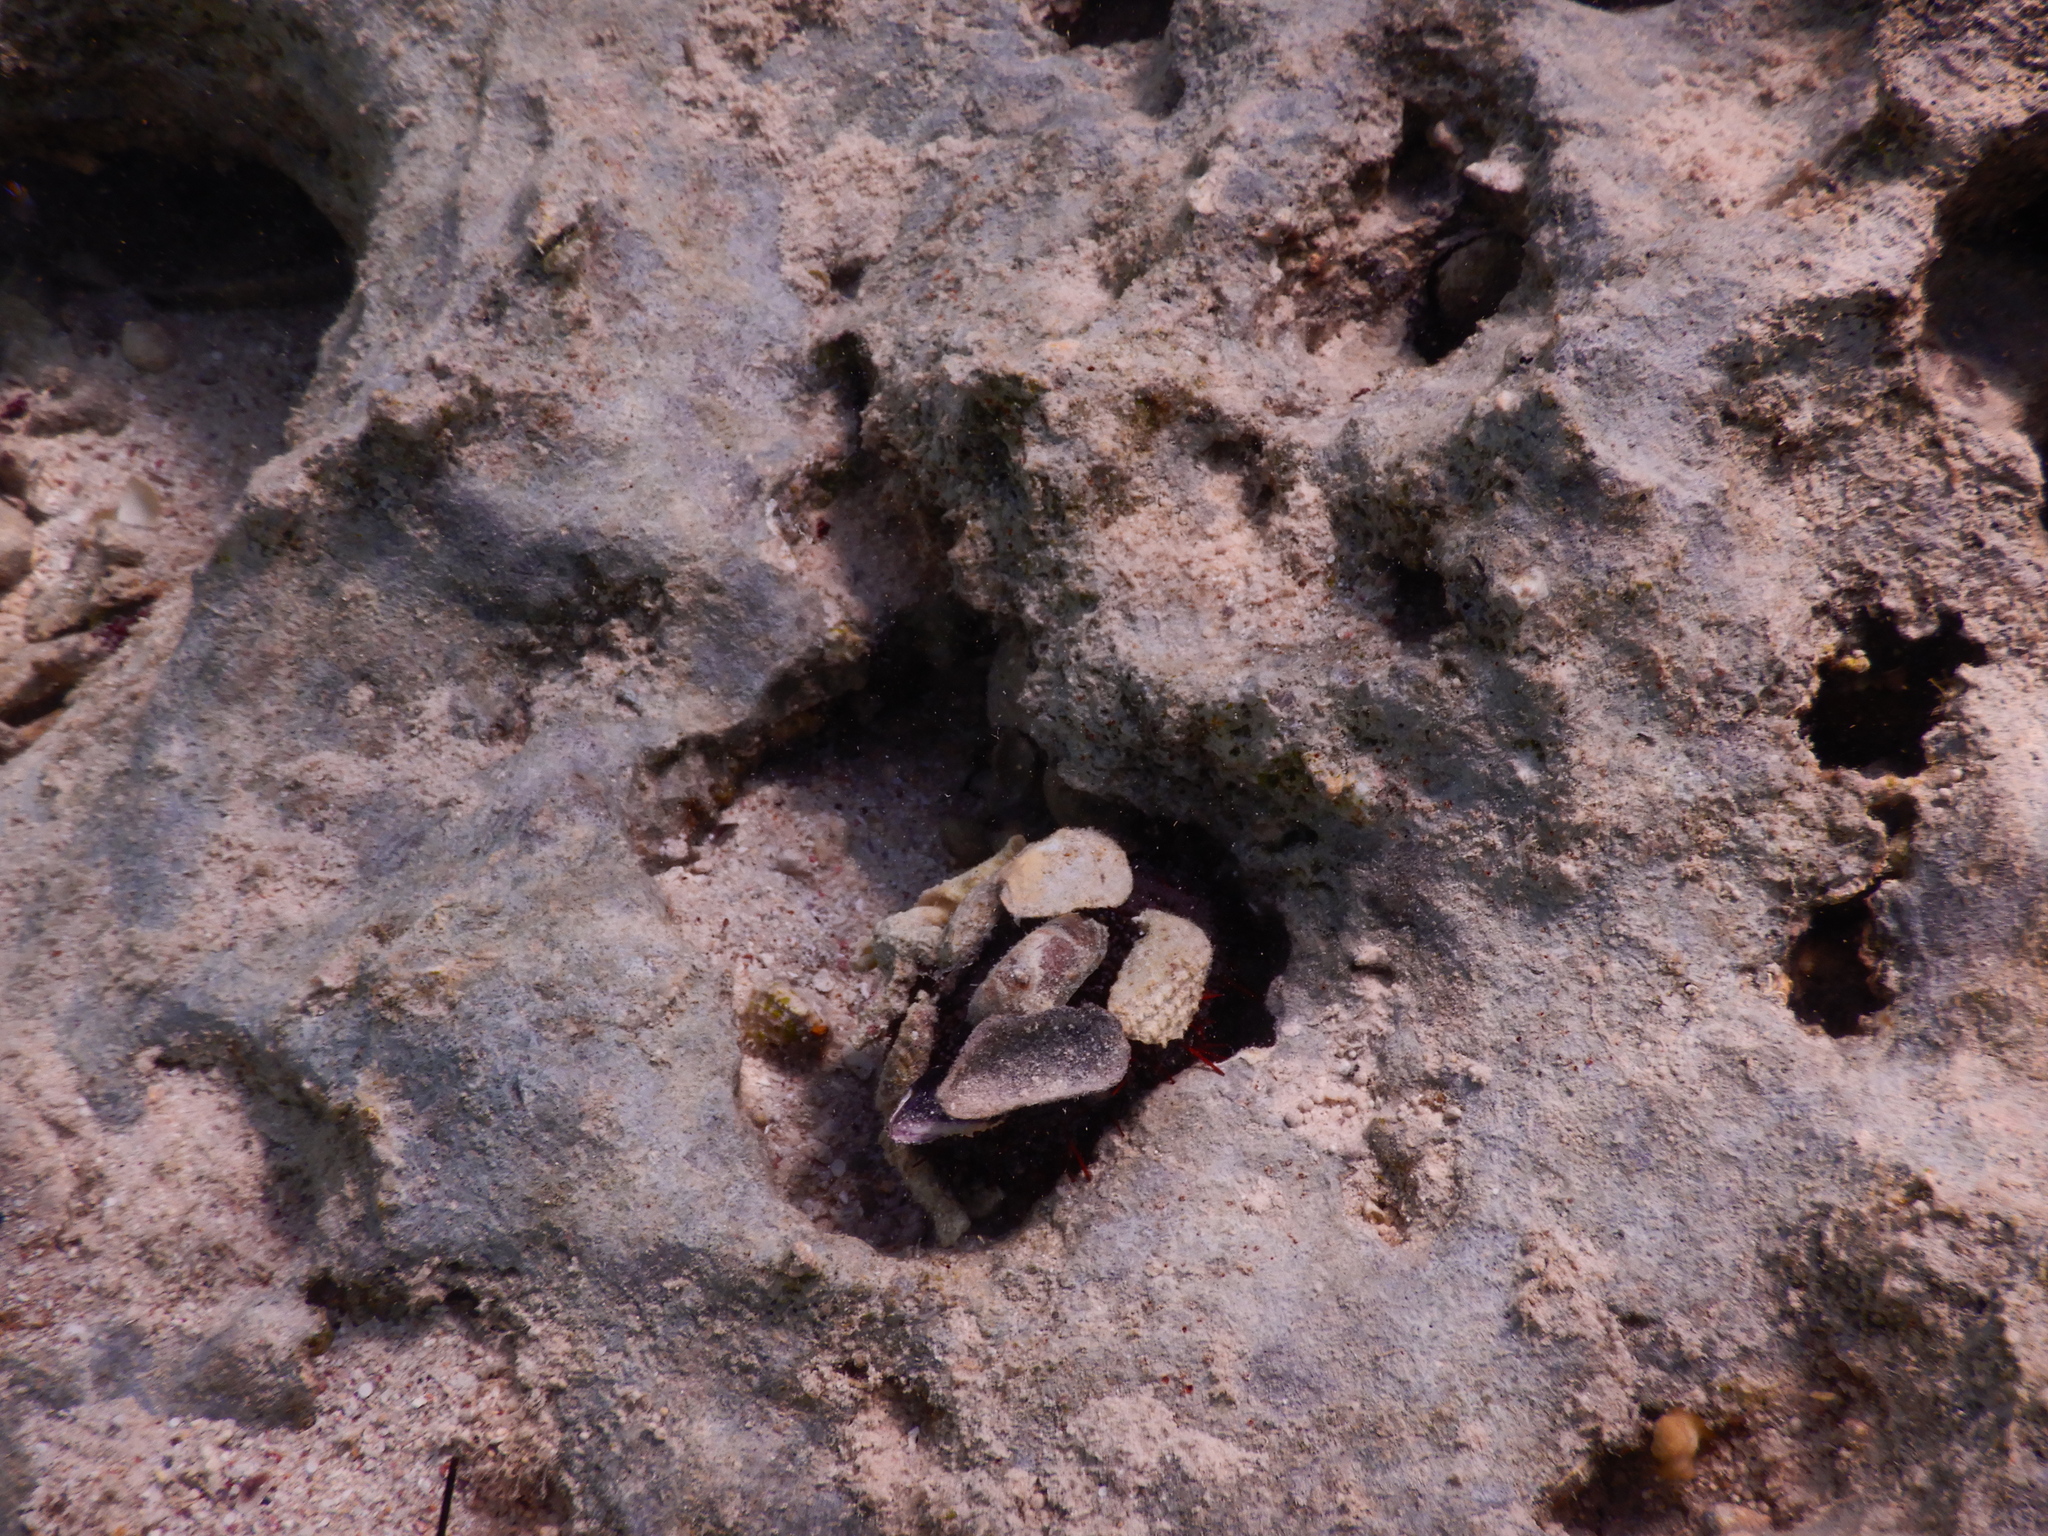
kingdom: Animalia
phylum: Echinodermata
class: Echinoidea
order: Camarodonta
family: Toxopneustidae
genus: Tripneustes
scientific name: Tripneustes gratilla
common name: Bischofsmützenseeigel
